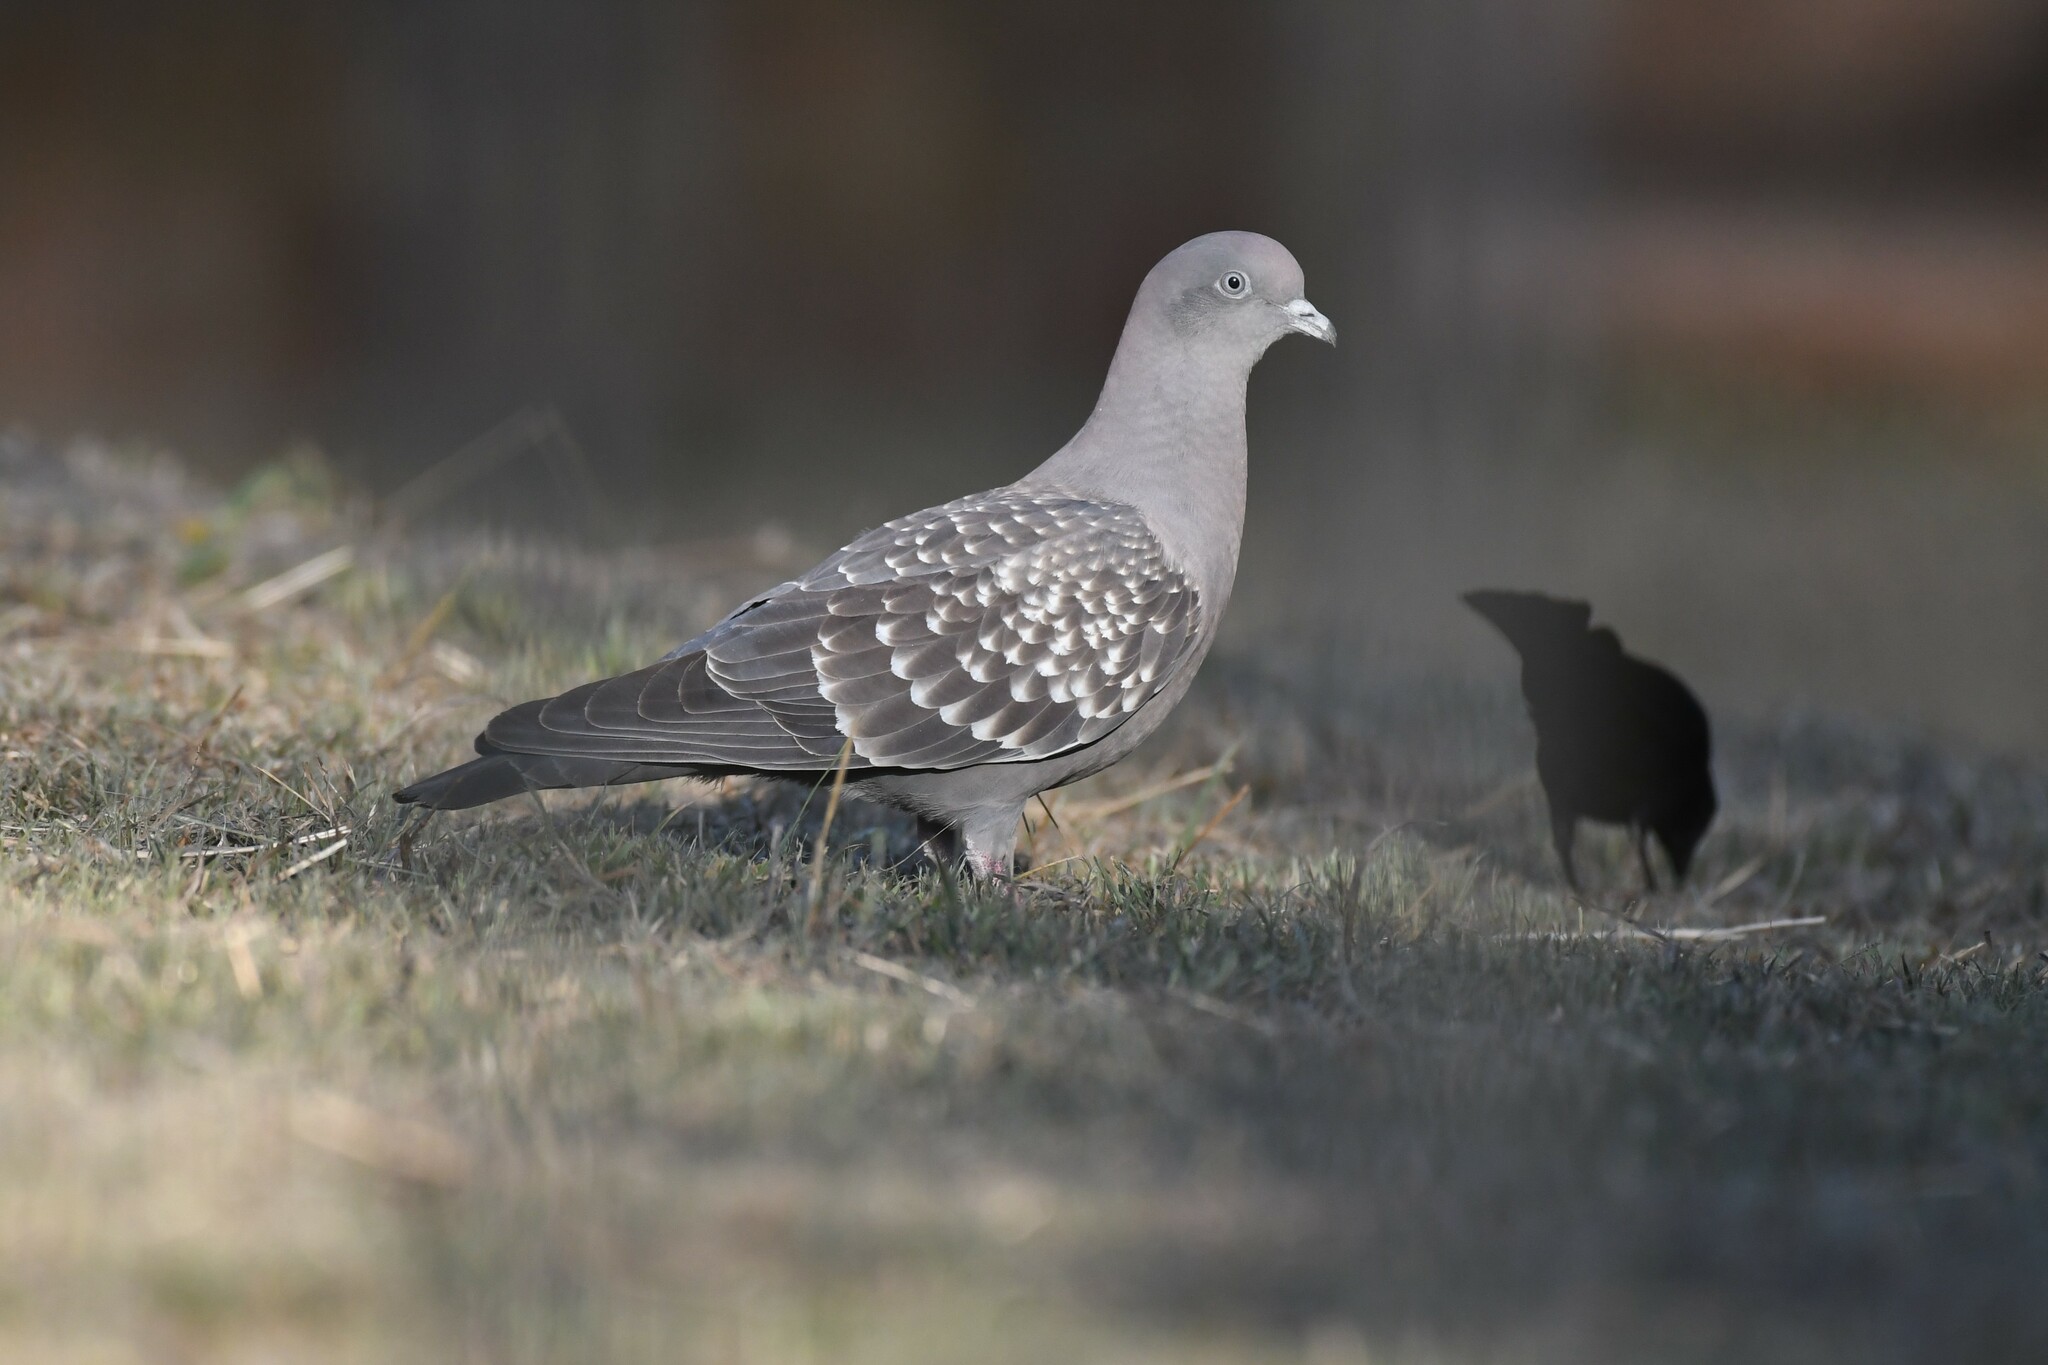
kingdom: Animalia
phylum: Chordata
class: Aves
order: Columbiformes
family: Columbidae
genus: Patagioenas
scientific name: Patagioenas maculosa
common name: Spot-winged pigeon
